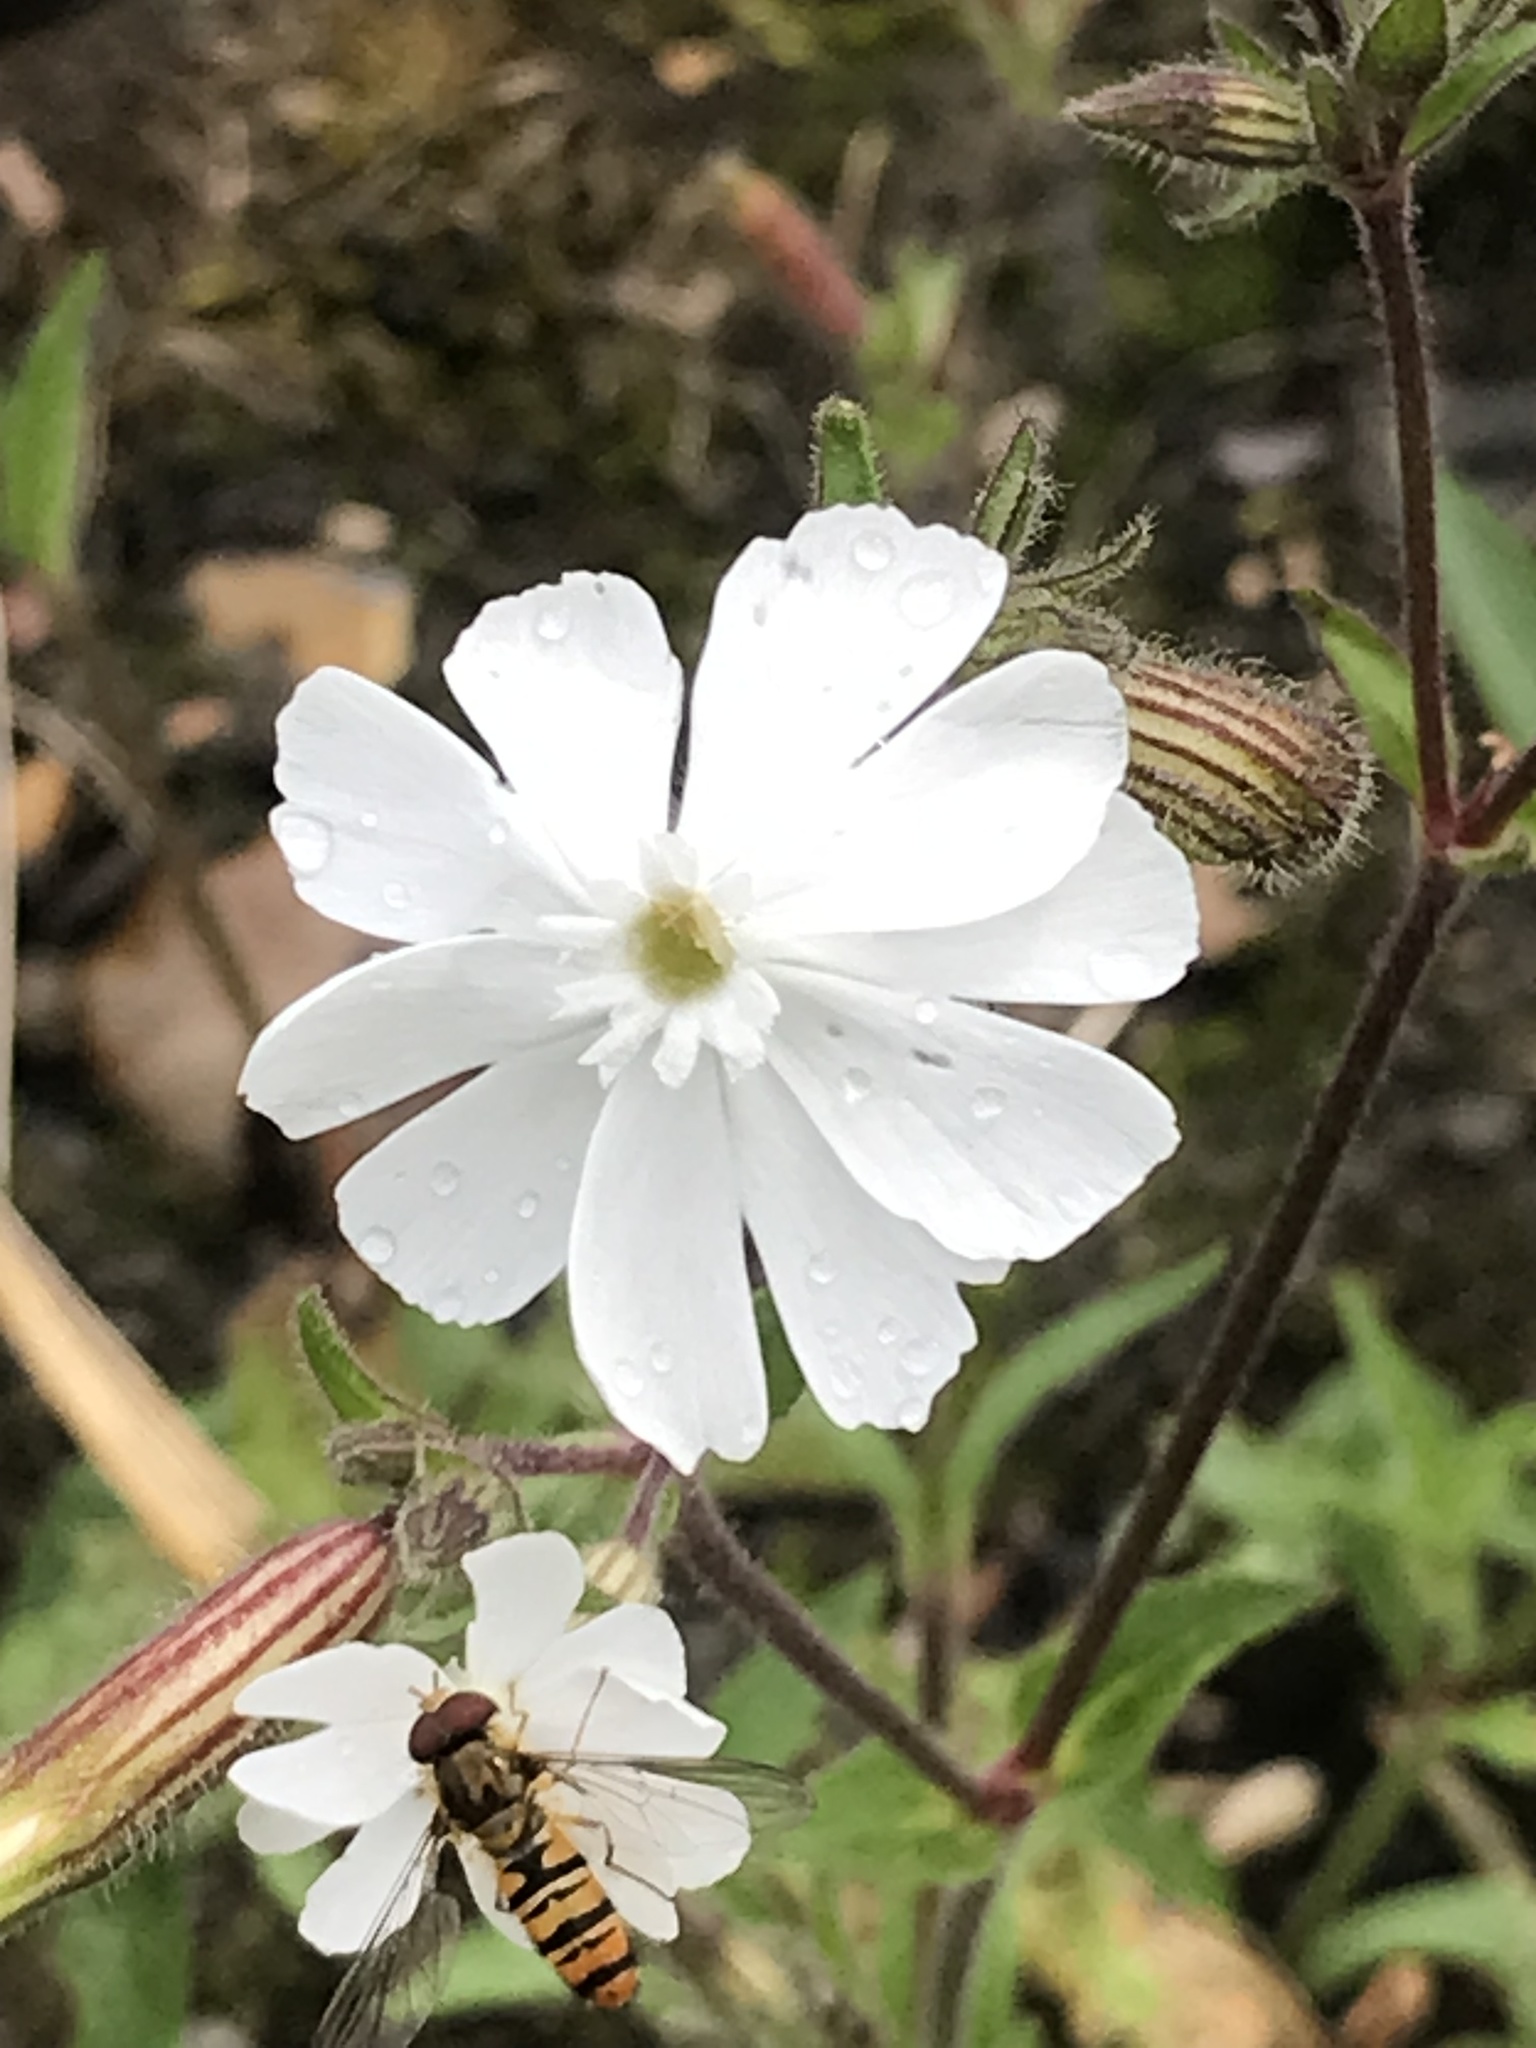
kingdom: Plantae
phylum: Tracheophyta
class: Magnoliopsida
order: Caryophyllales
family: Caryophyllaceae
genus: Silene
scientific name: Silene latifolia
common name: White campion
